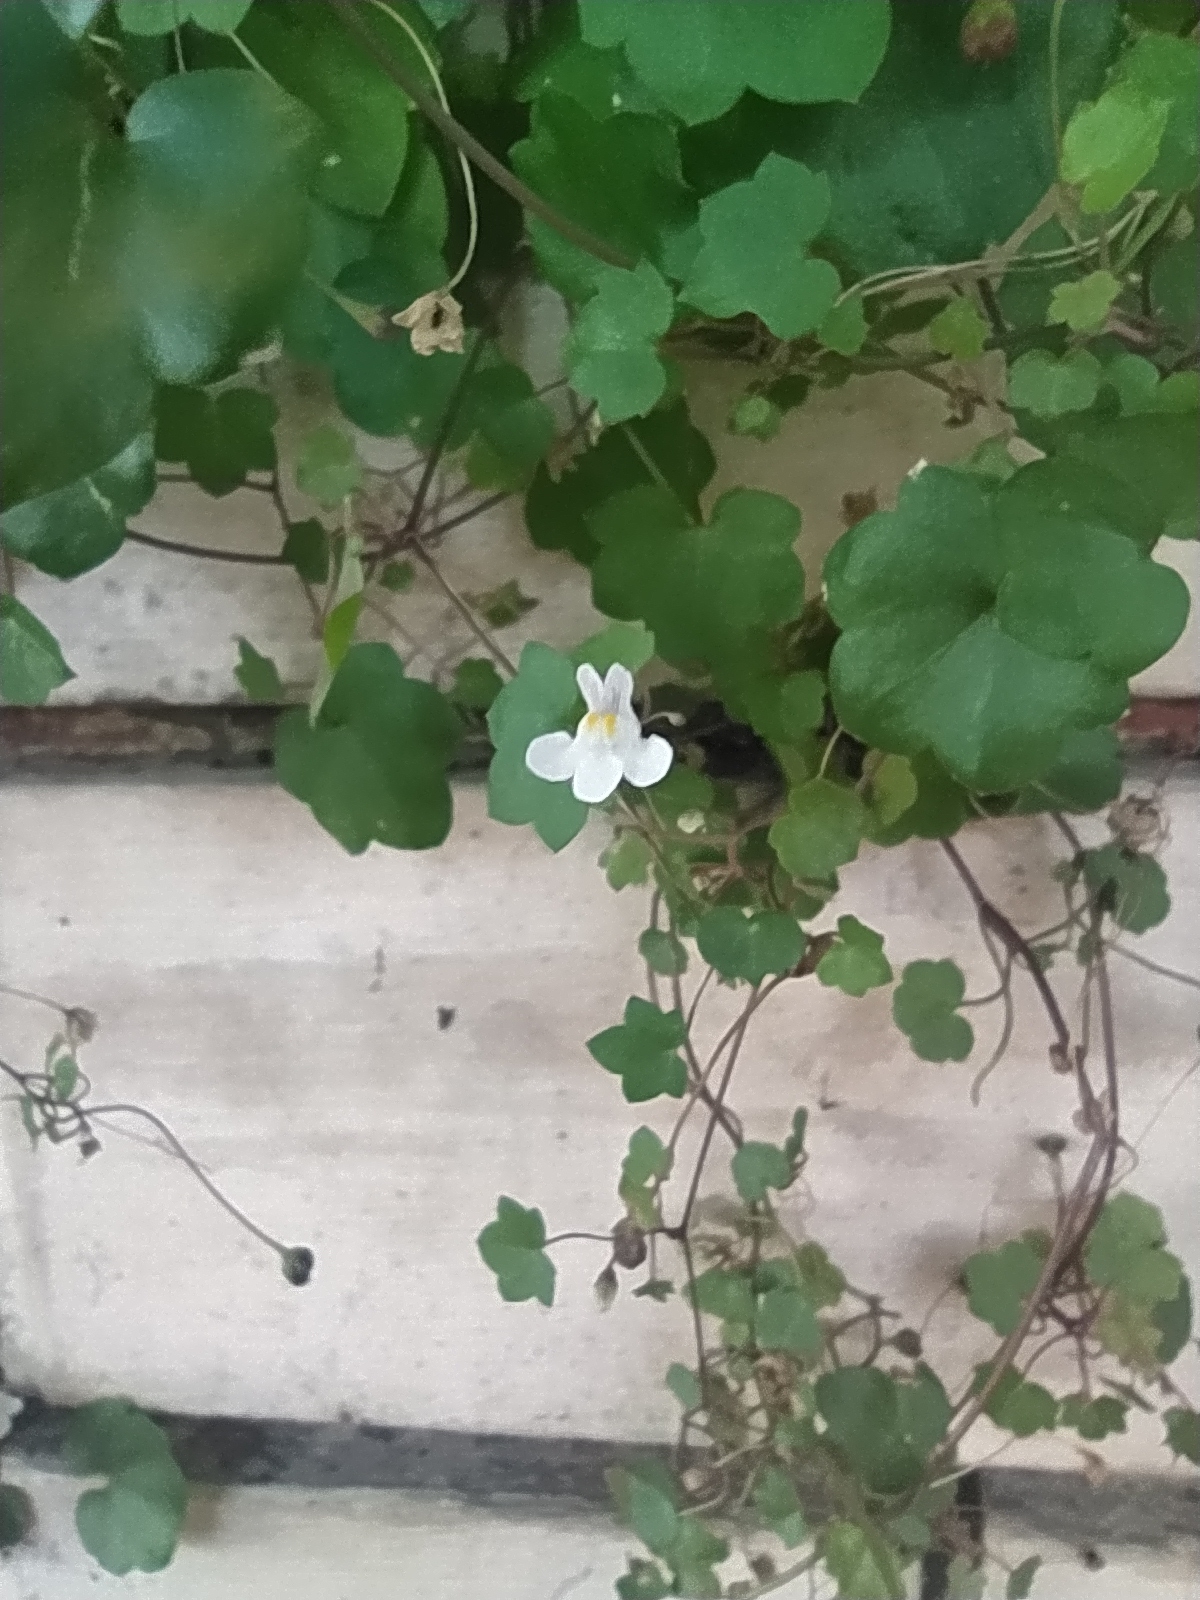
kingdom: Plantae
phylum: Tracheophyta
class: Magnoliopsida
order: Lamiales
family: Plantaginaceae
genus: Cymbalaria
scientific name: Cymbalaria muralis
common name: Ivy-leaved toadflax
